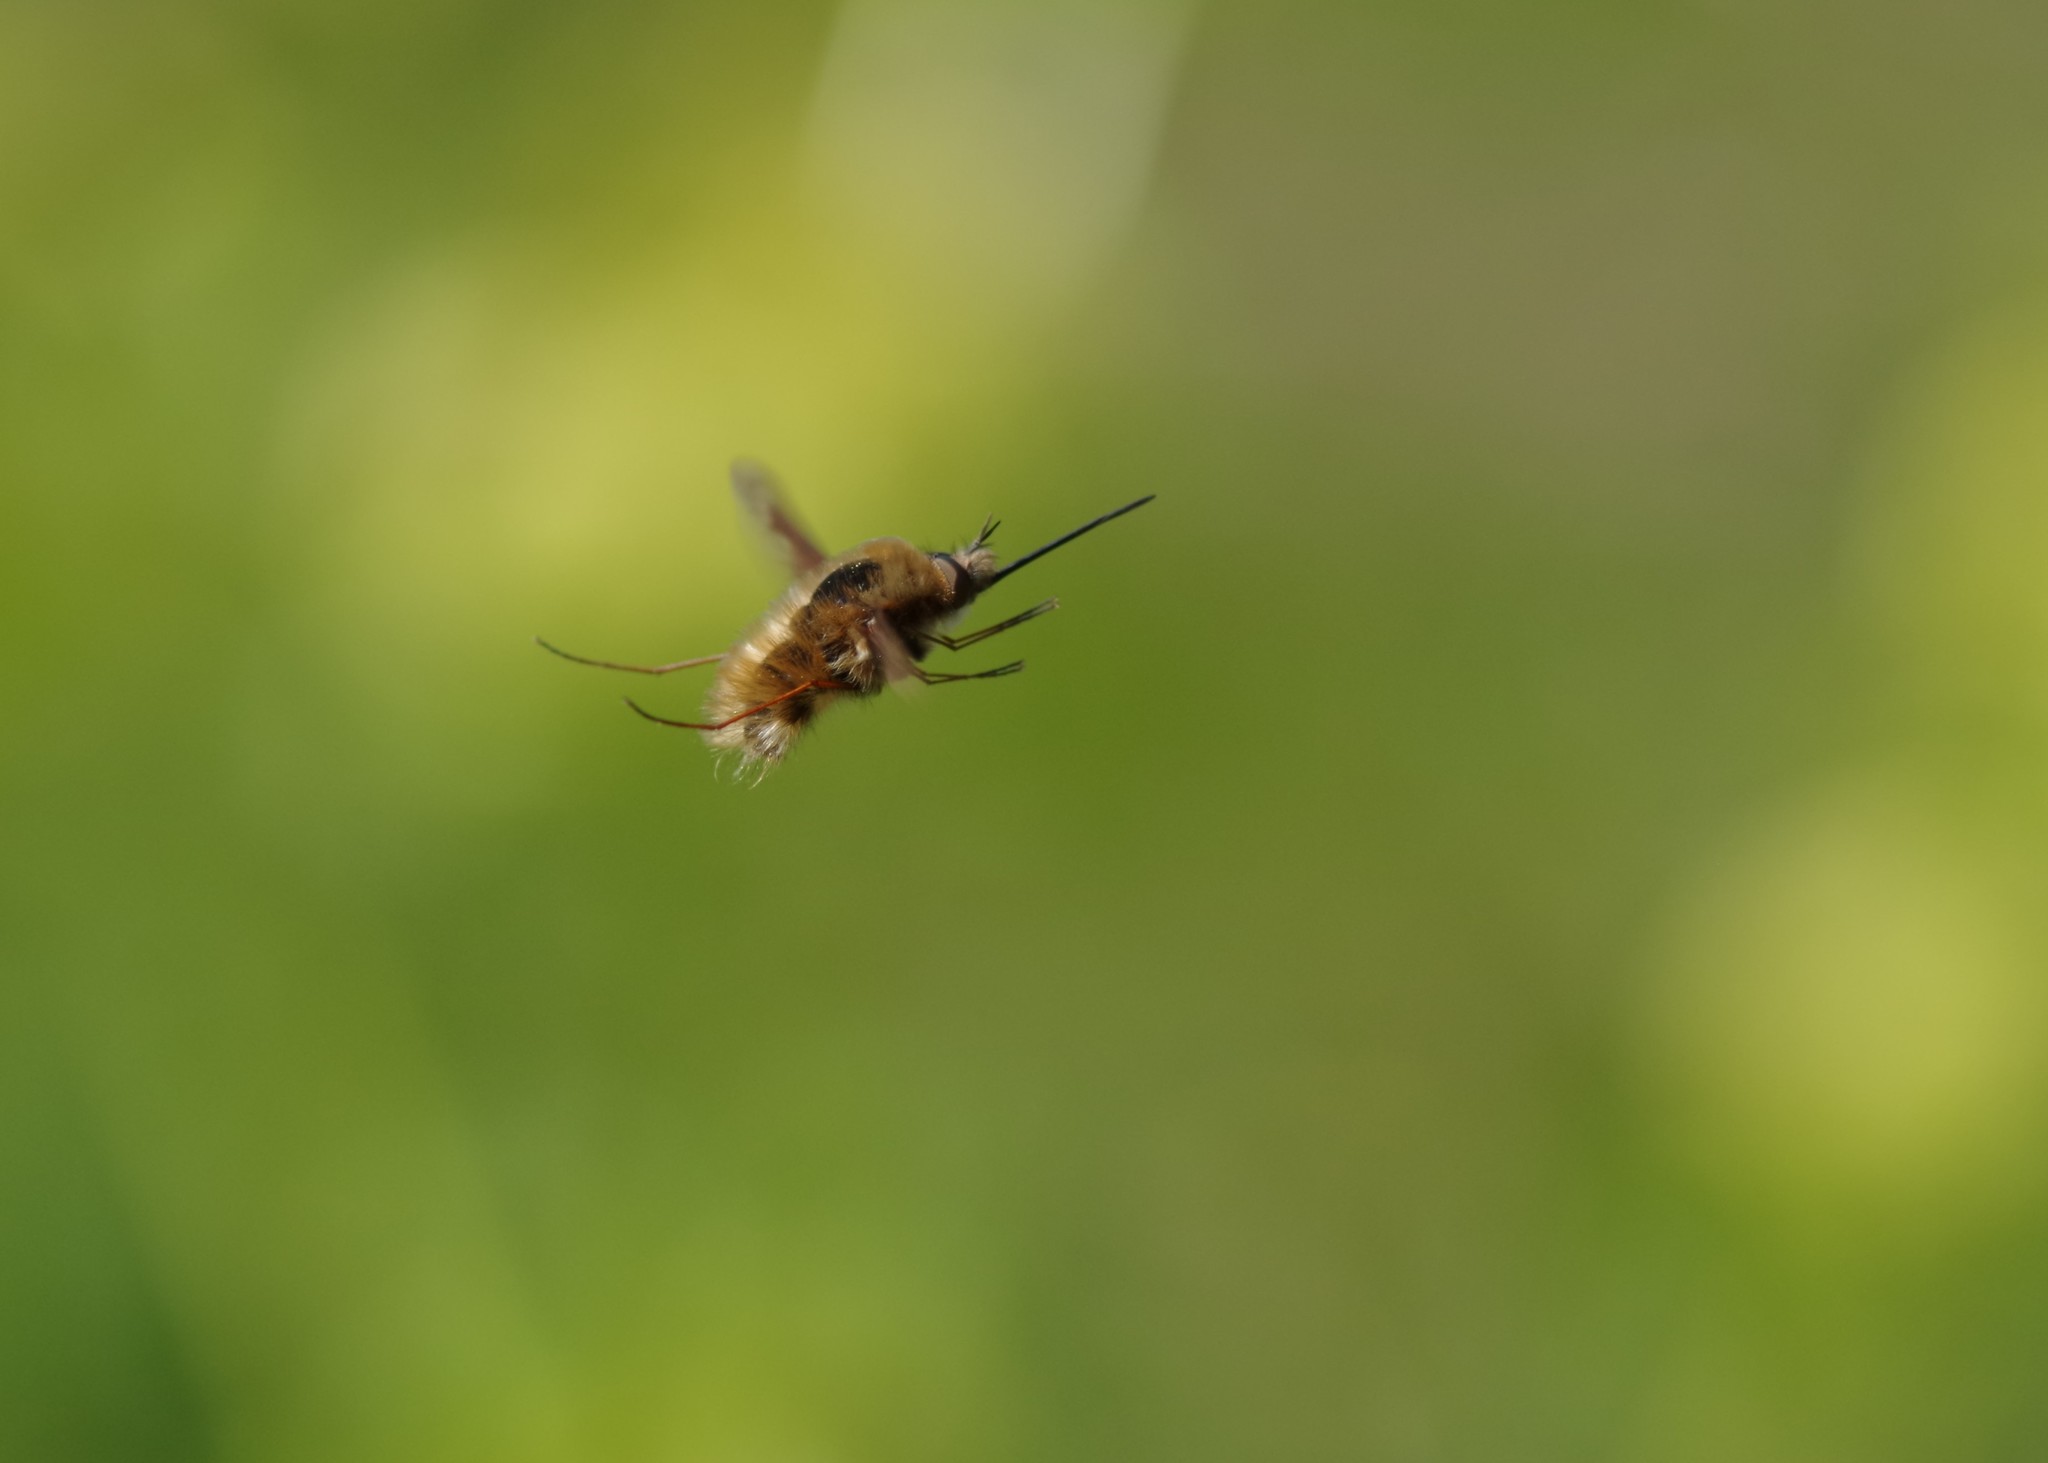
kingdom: Animalia
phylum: Arthropoda
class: Insecta
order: Diptera
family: Bombyliidae
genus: Bombylius
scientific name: Bombylius major
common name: Bee fly
